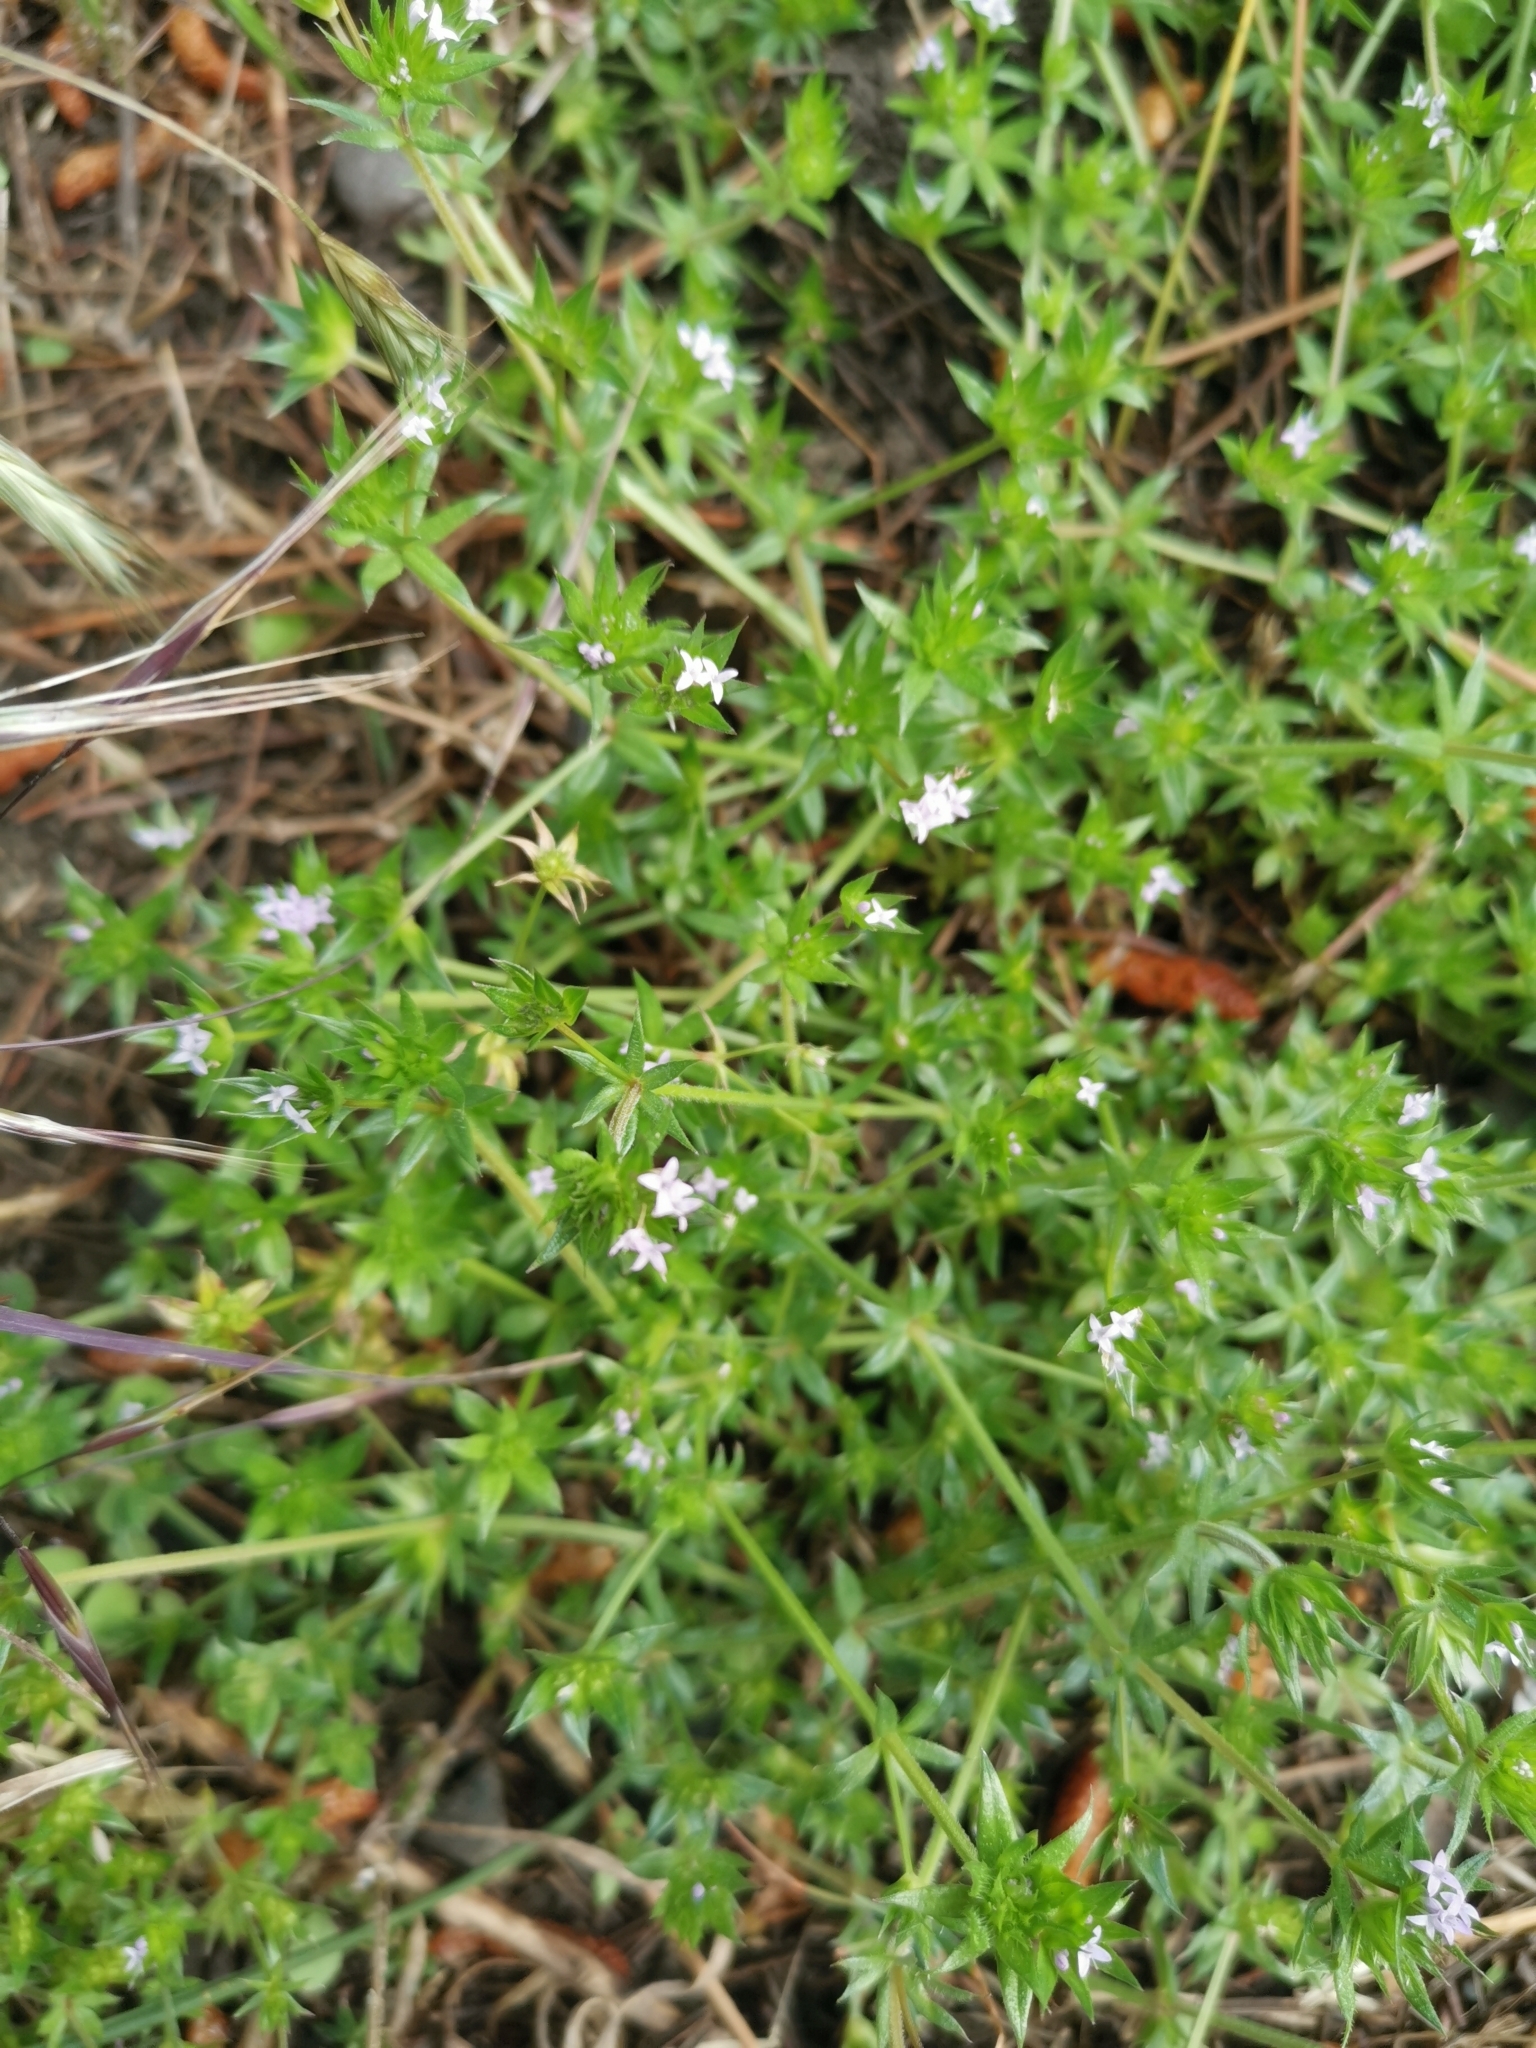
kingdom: Plantae
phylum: Tracheophyta
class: Magnoliopsida
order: Gentianales
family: Rubiaceae
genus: Sherardia
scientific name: Sherardia arvensis
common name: Field madder
